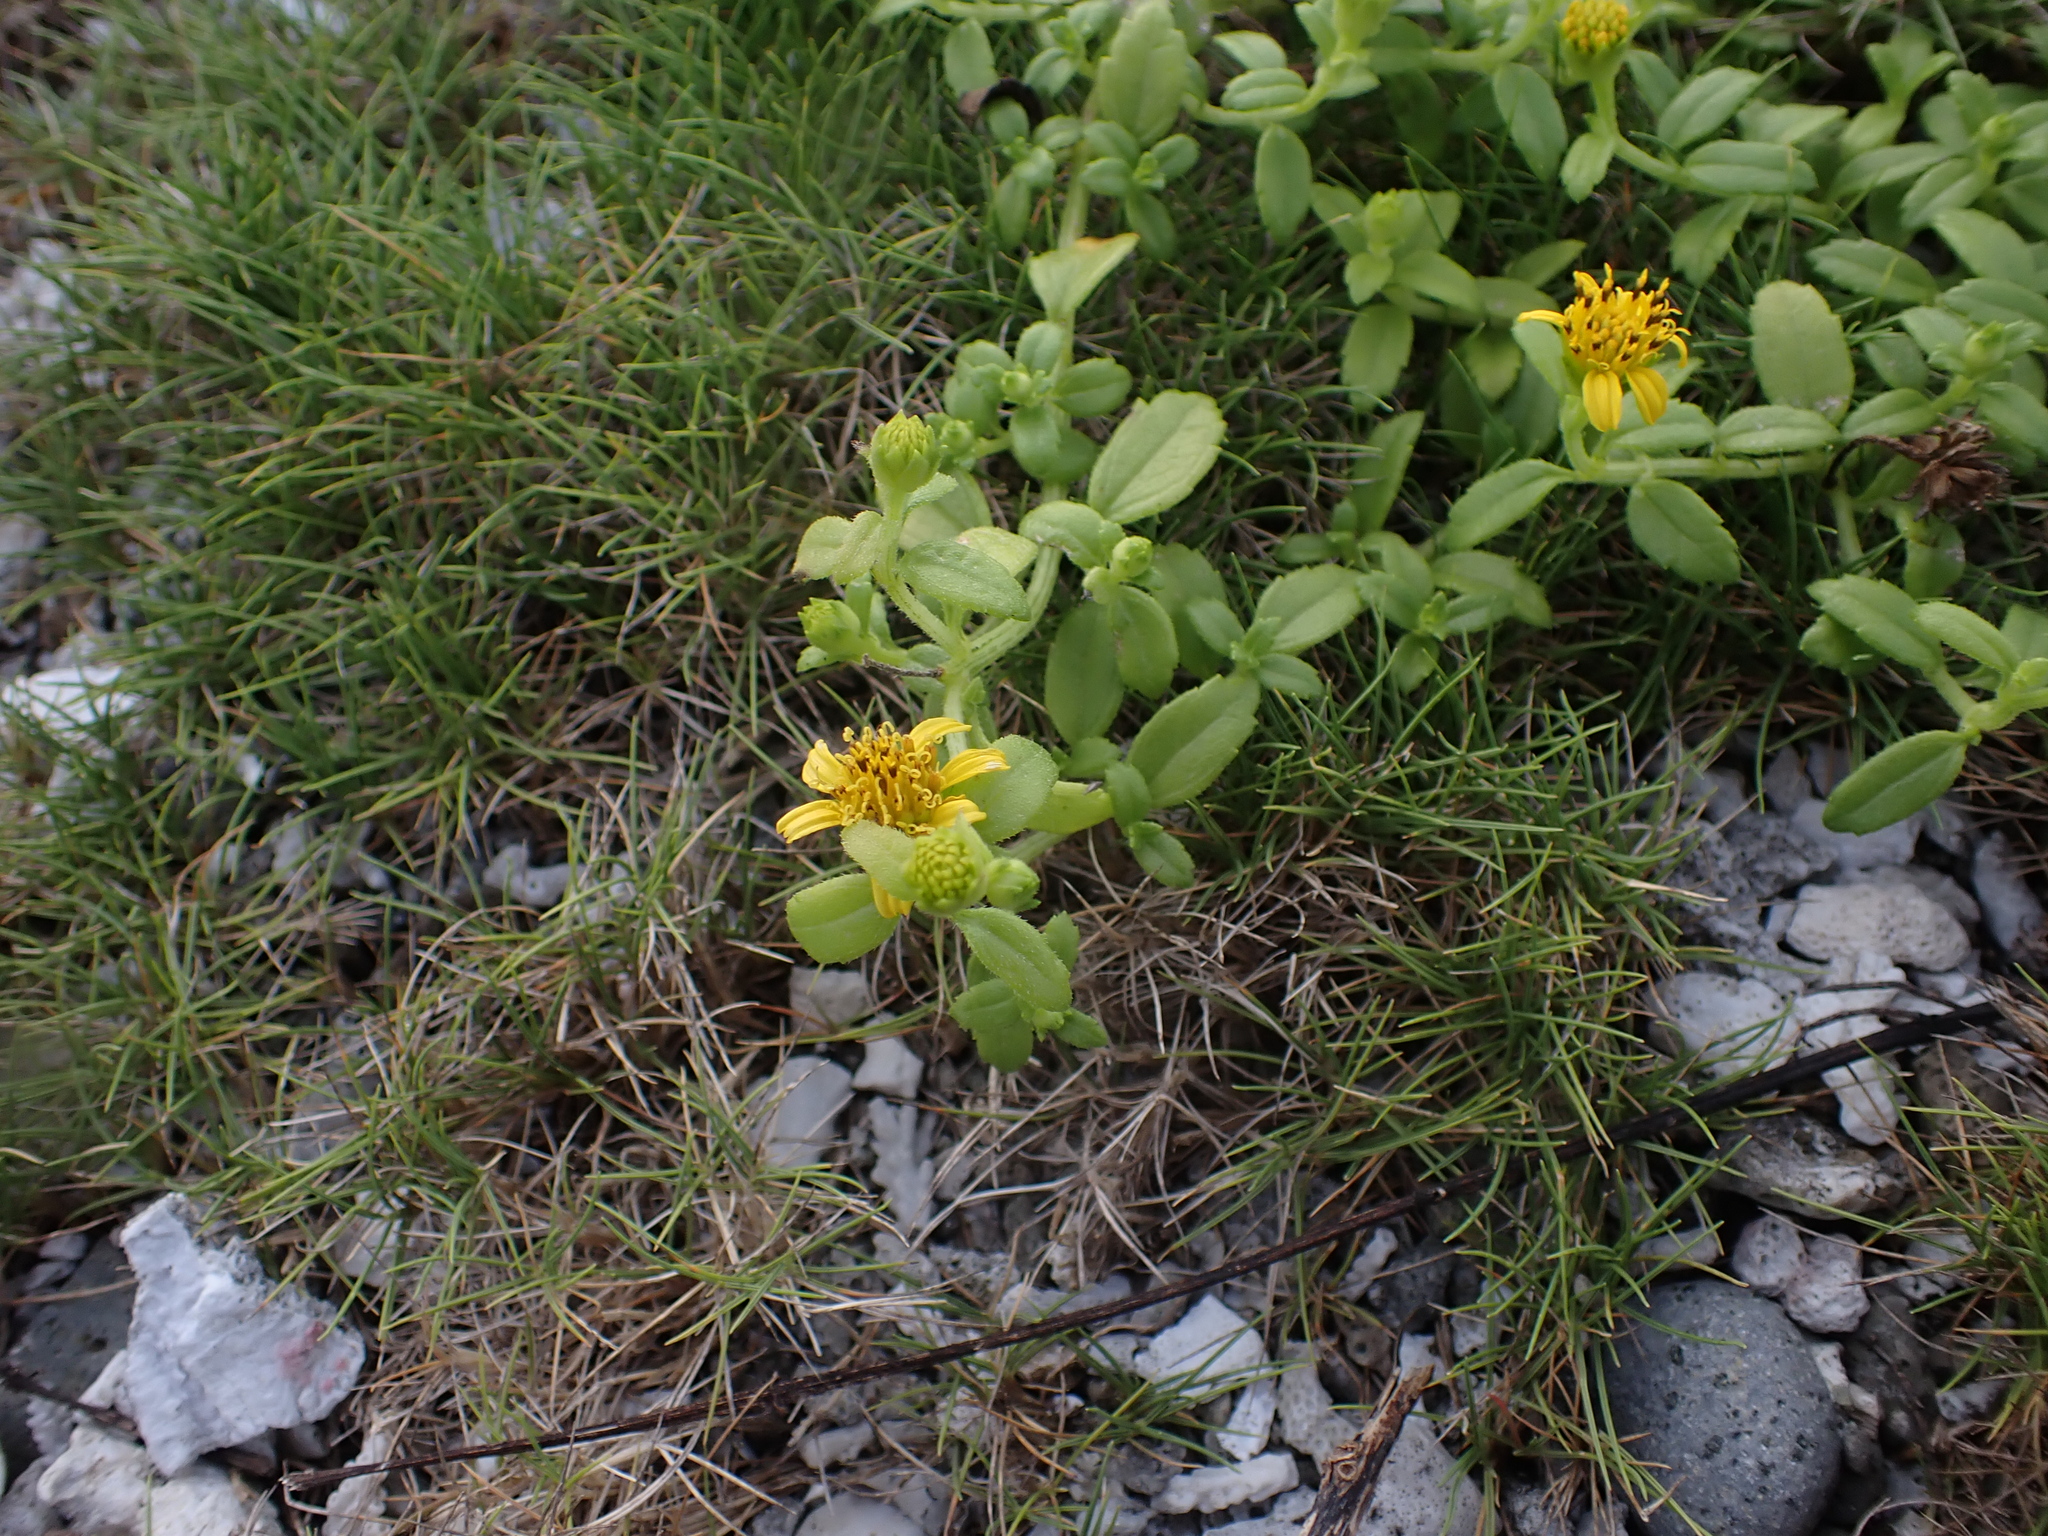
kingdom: Plantae
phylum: Tracheophyta
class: Magnoliopsida
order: Asterales
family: Asteraceae
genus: Melanthera
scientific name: Melanthera prostrata
